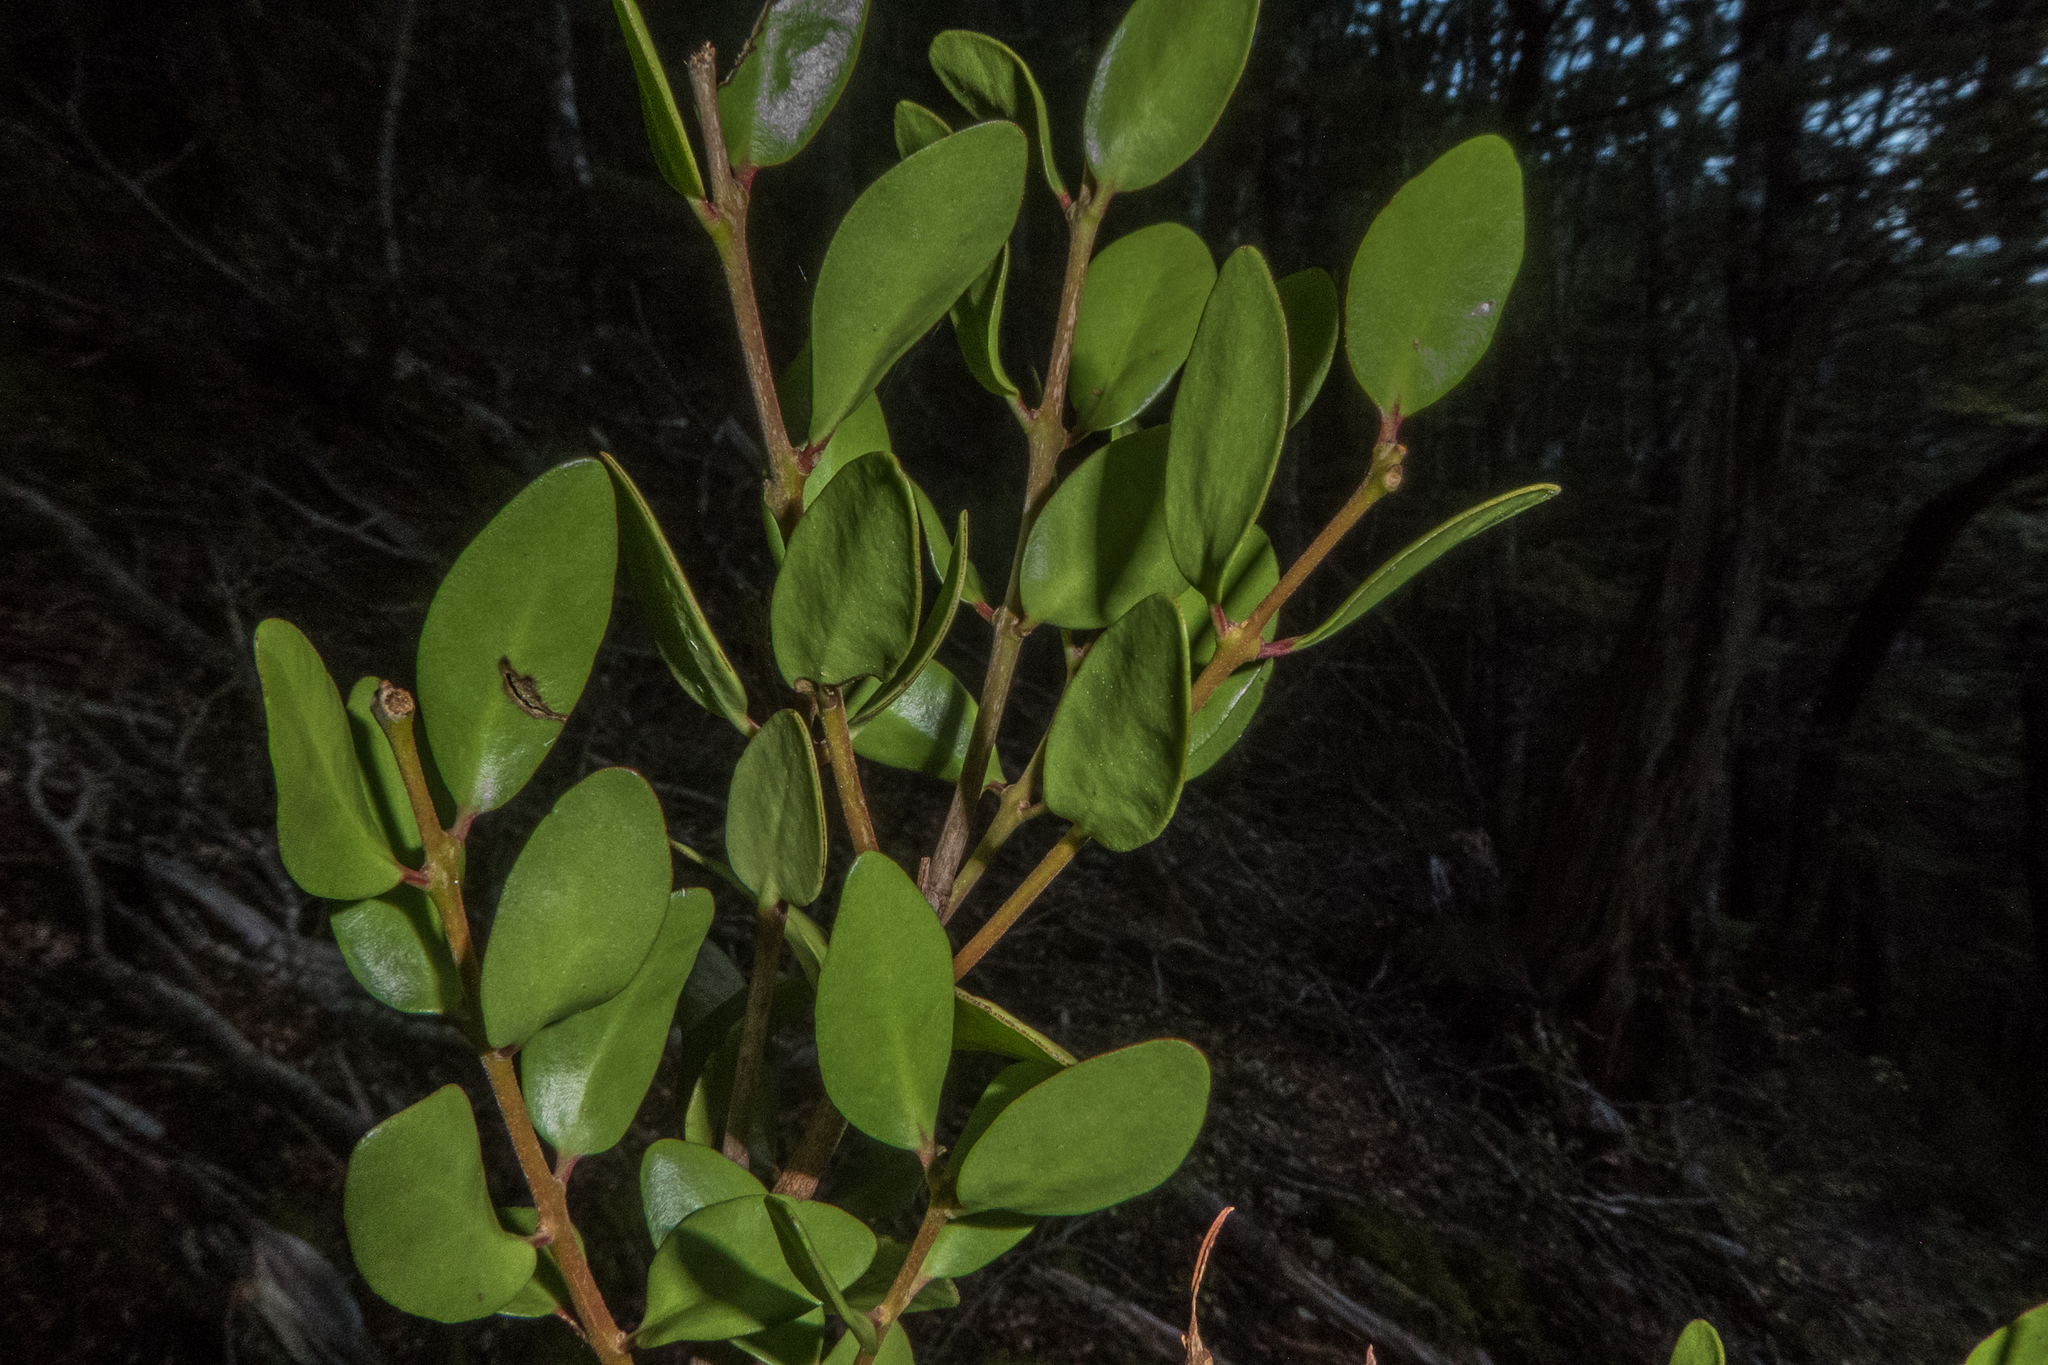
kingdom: Plantae
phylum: Tracheophyta
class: Magnoliopsida
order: Santalales
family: Loranthaceae
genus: Peraxilla
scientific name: Peraxilla tetrapetala
